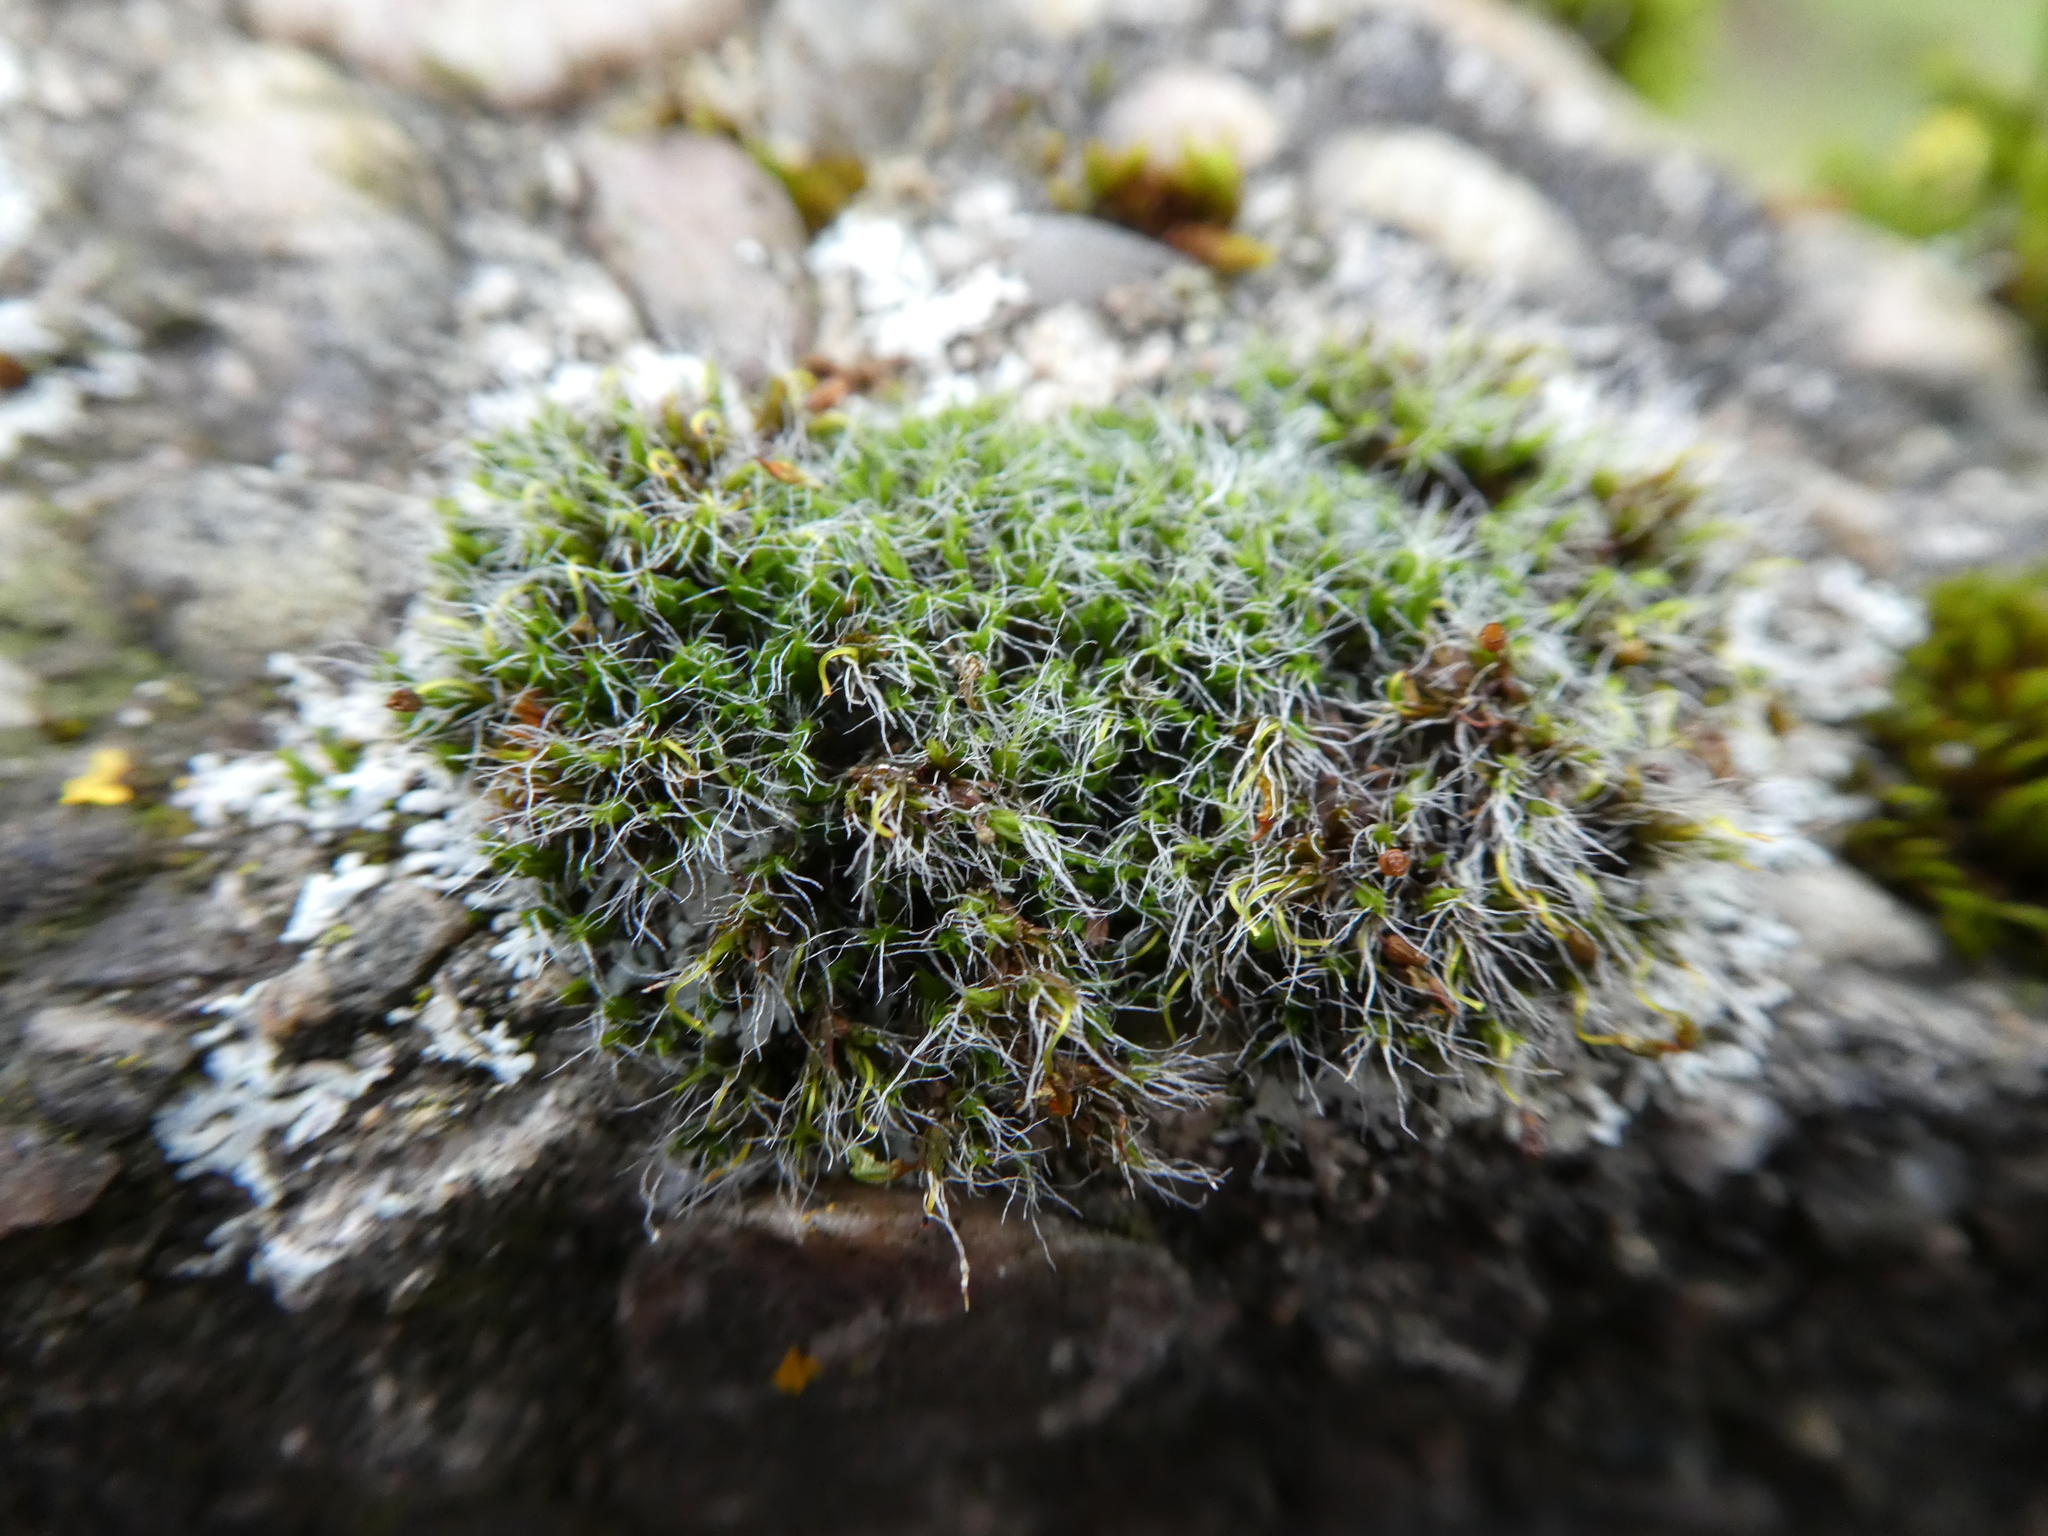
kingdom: Plantae
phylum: Bryophyta
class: Bryopsida
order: Grimmiales
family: Grimmiaceae
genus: Grimmia
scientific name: Grimmia pulvinata
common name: Grey-cushioned grimmia
